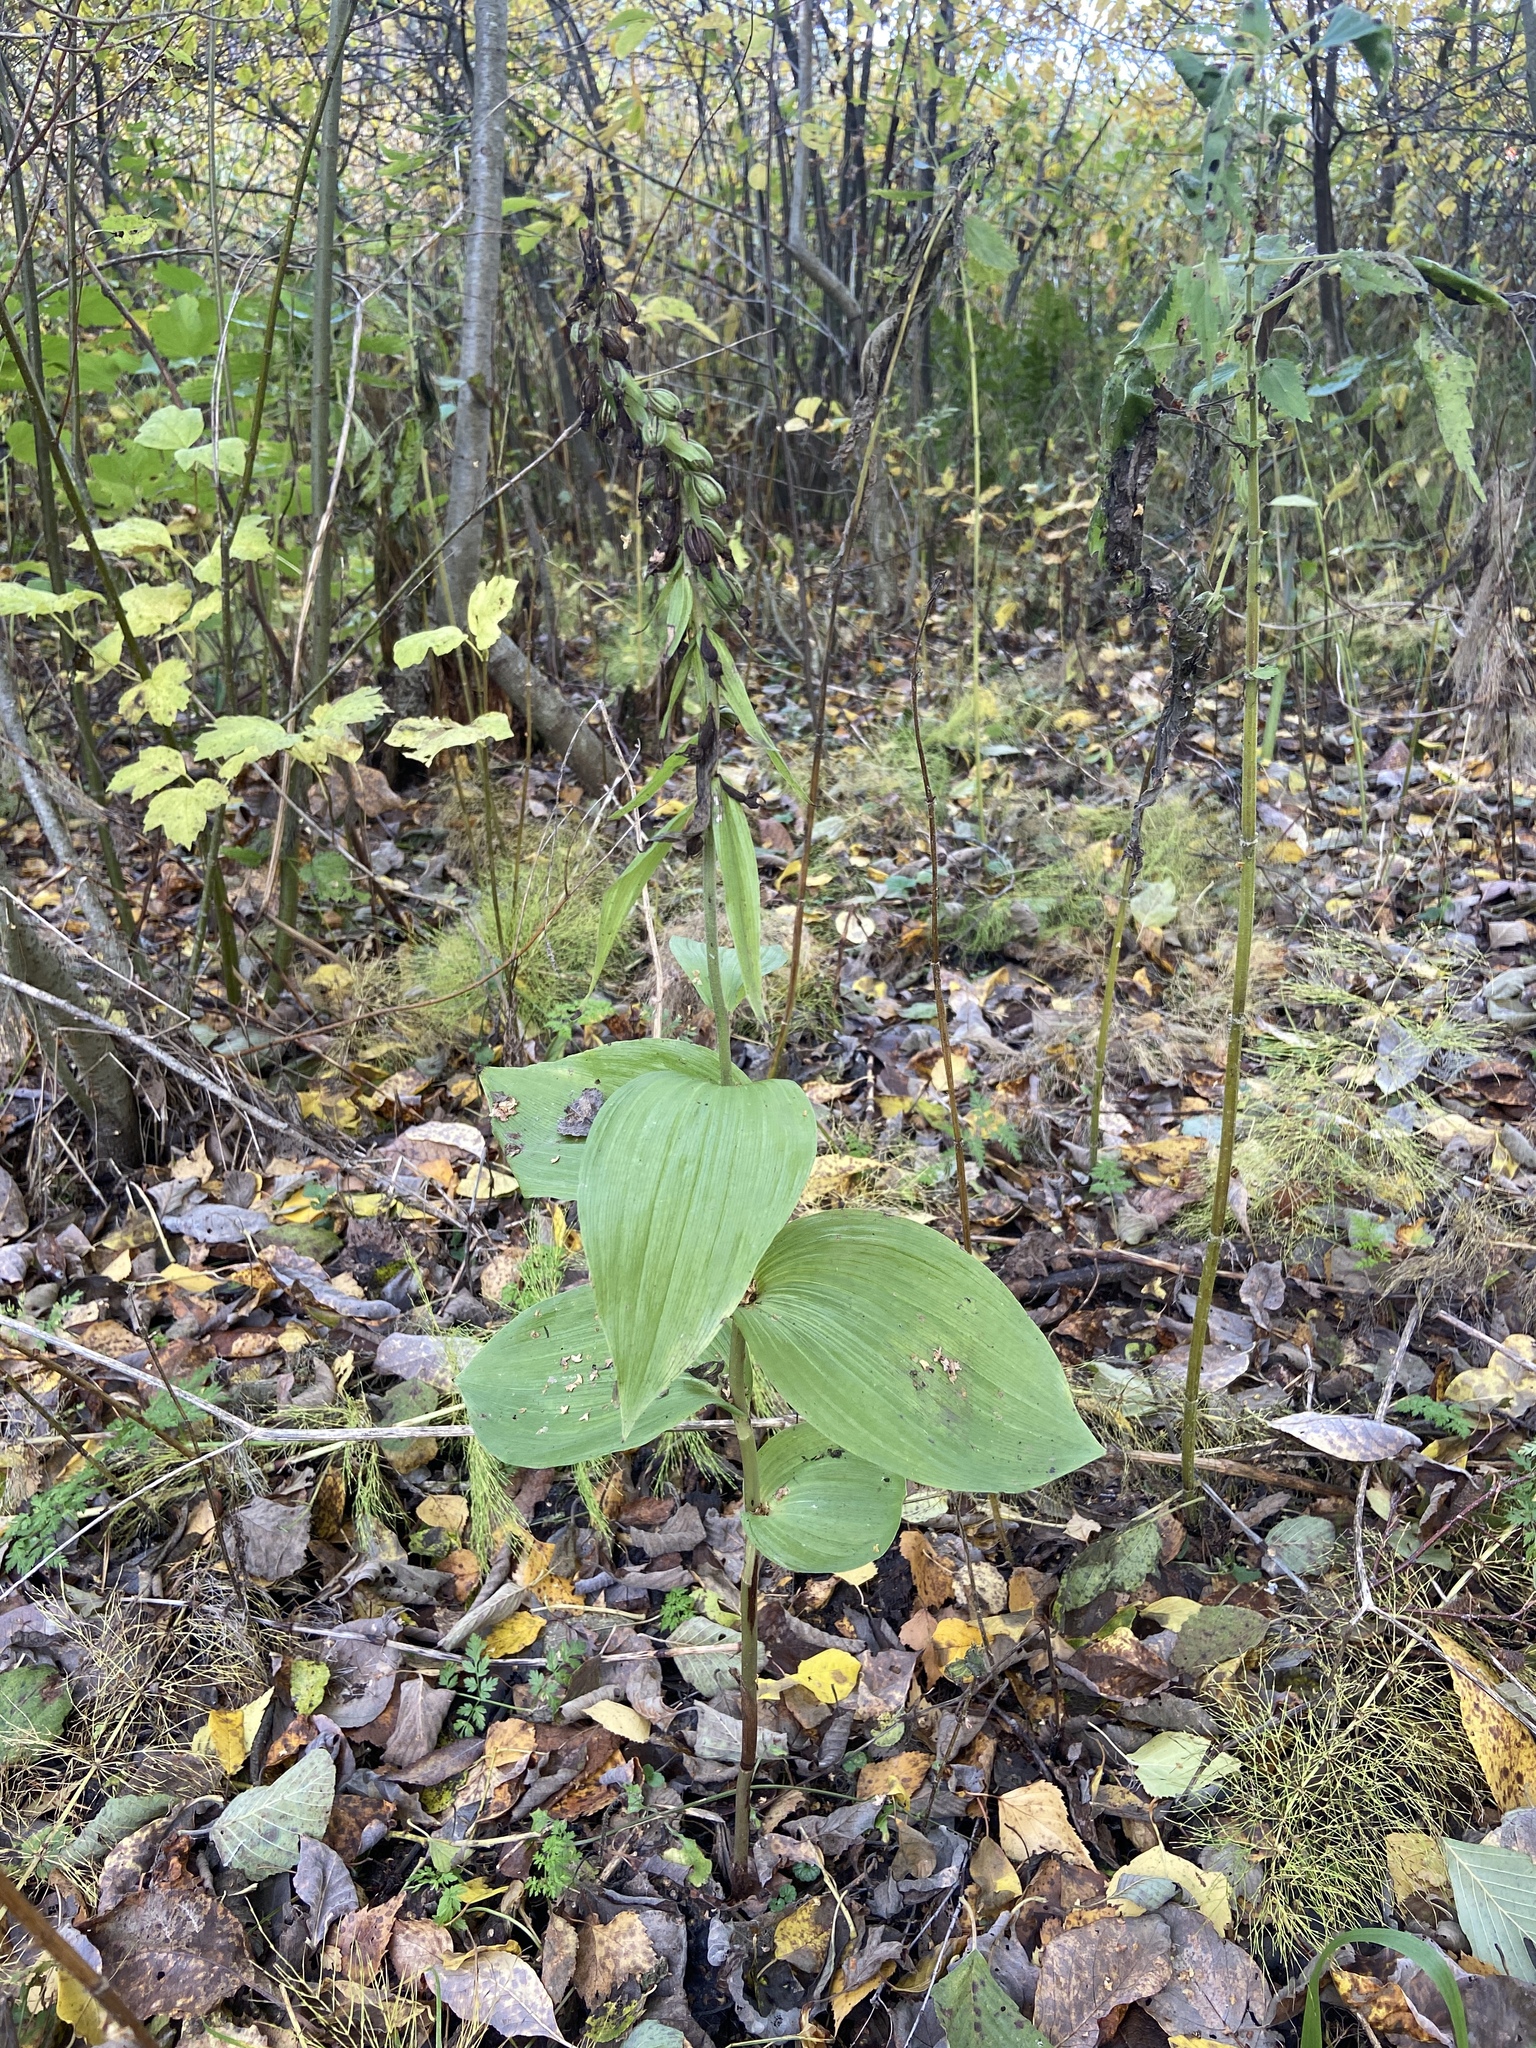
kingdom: Plantae
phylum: Tracheophyta
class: Liliopsida
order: Asparagales
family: Orchidaceae
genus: Epipactis
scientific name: Epipactis helleborine
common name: Broad-leaved helleborine
